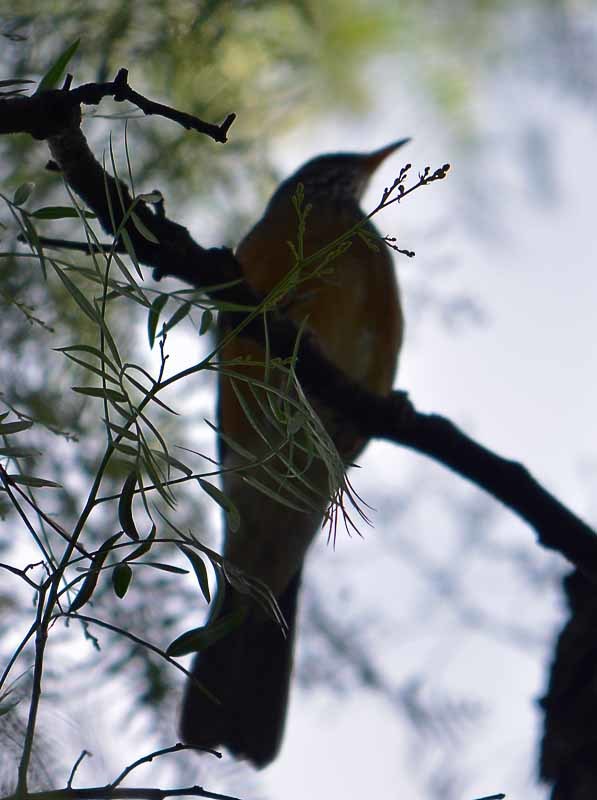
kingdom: Animalia
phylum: Chordata
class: Aves
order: Passeriformes
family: Turdidae
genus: Turdus
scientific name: Turdus rufopalliatus
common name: Rufous-backed robin
